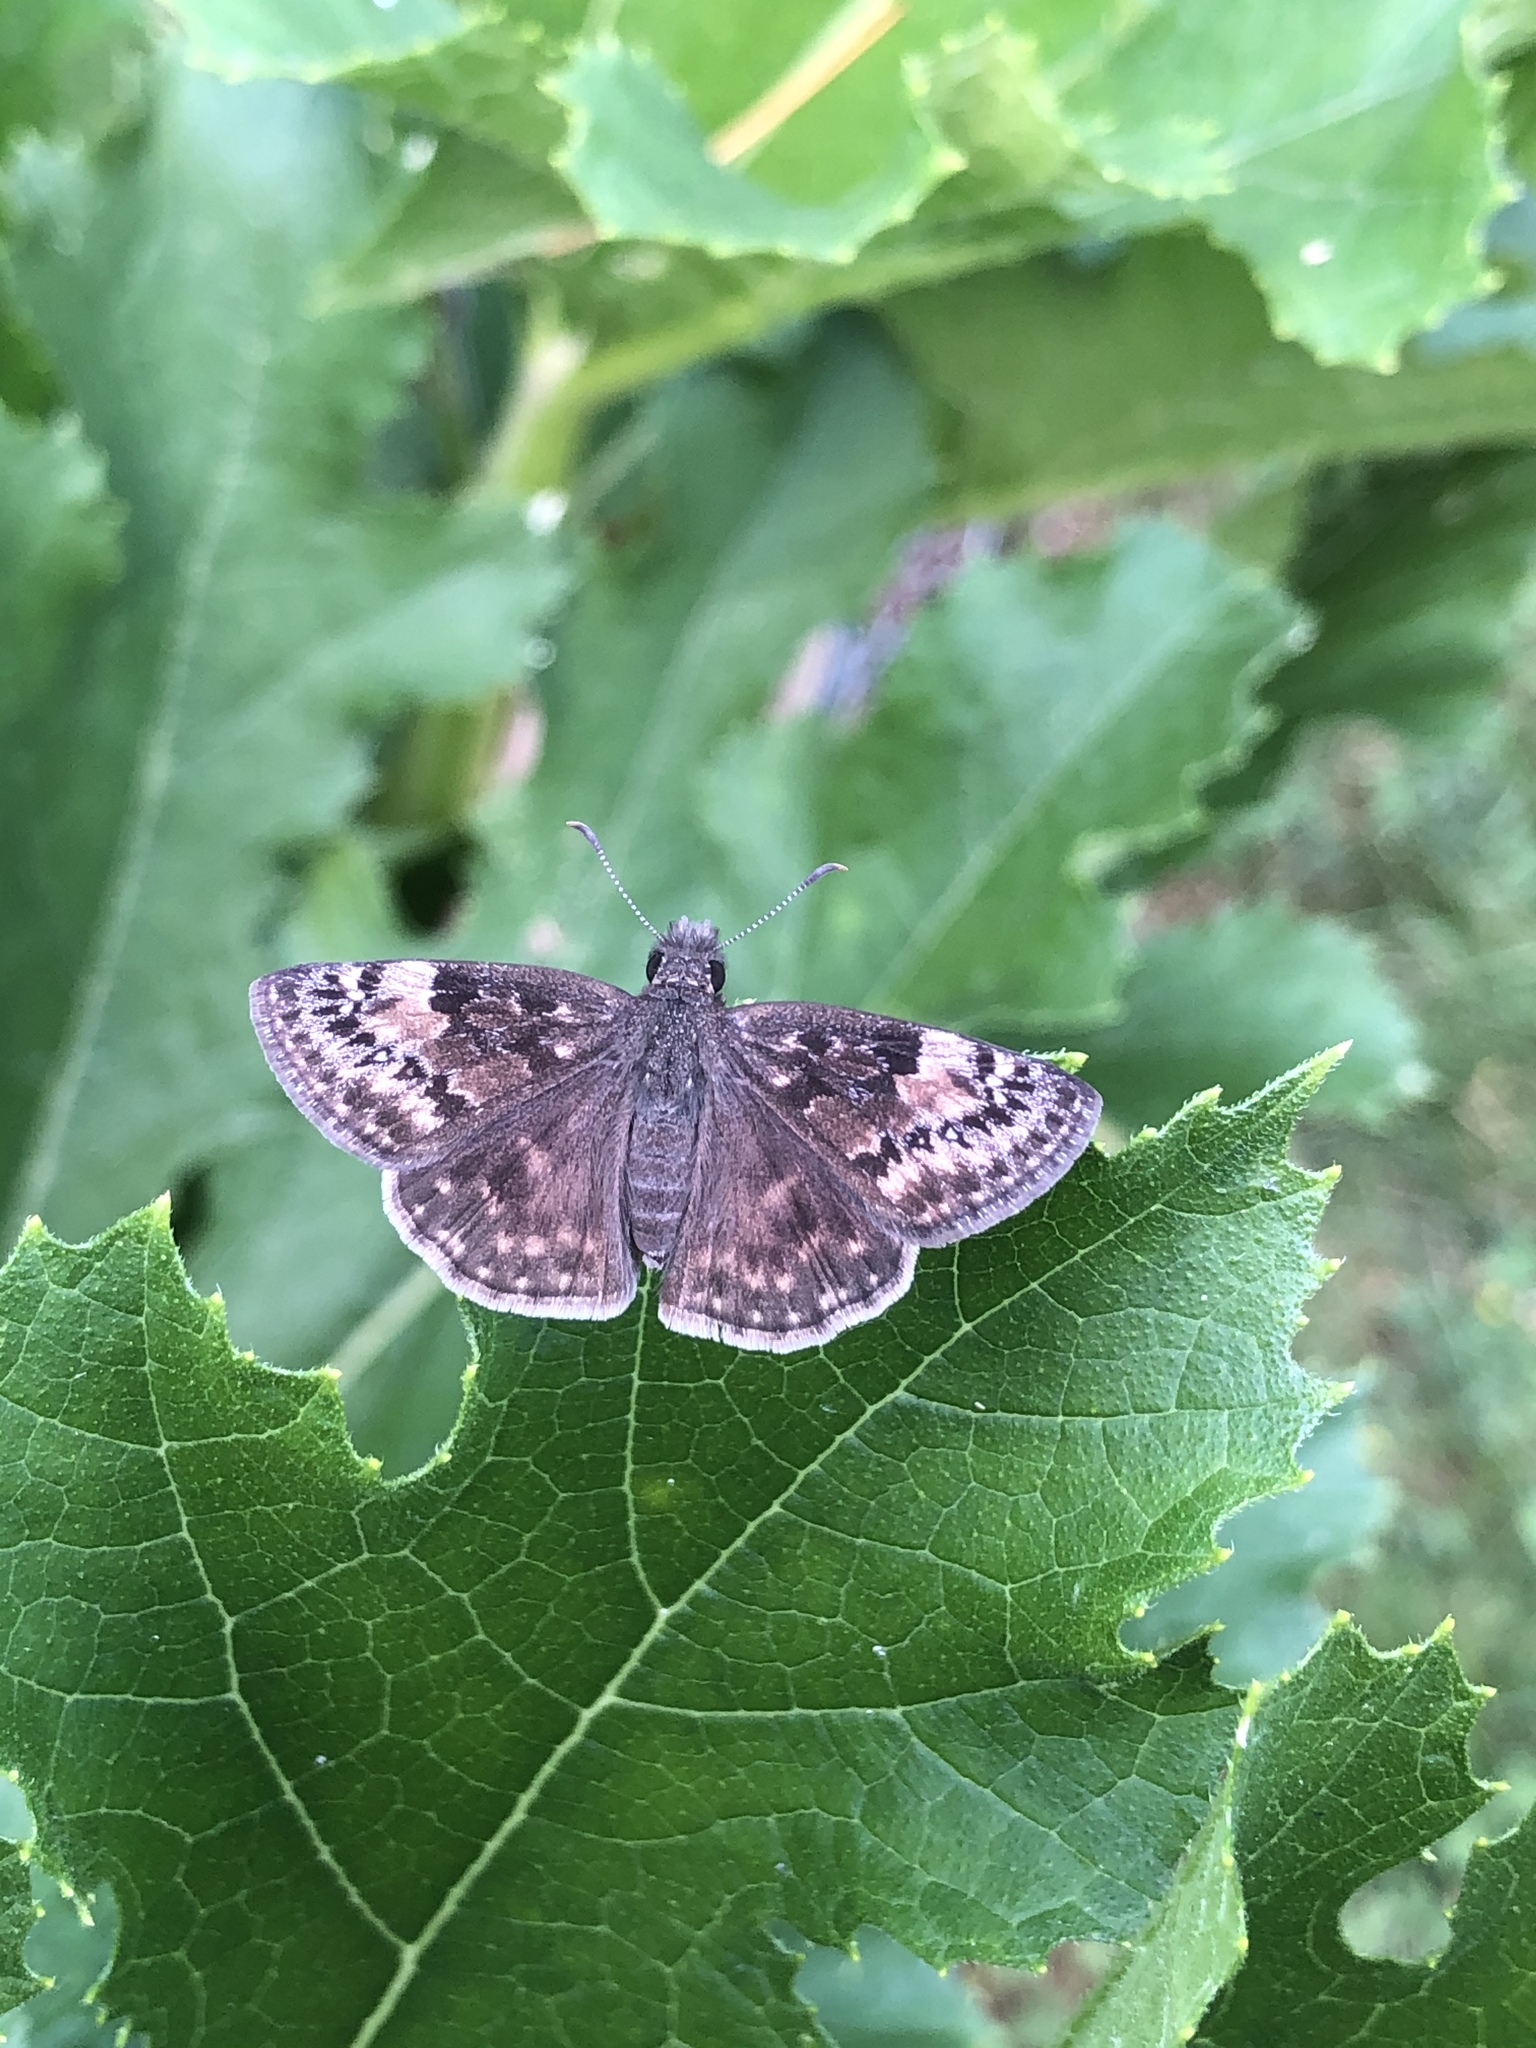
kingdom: Animalia
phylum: Arthropoda
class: Insecta
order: Lepidoptera
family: Hesperiidae
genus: Erynnis
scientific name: Erynnis baptisiae
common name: Wild indigo duskywing
